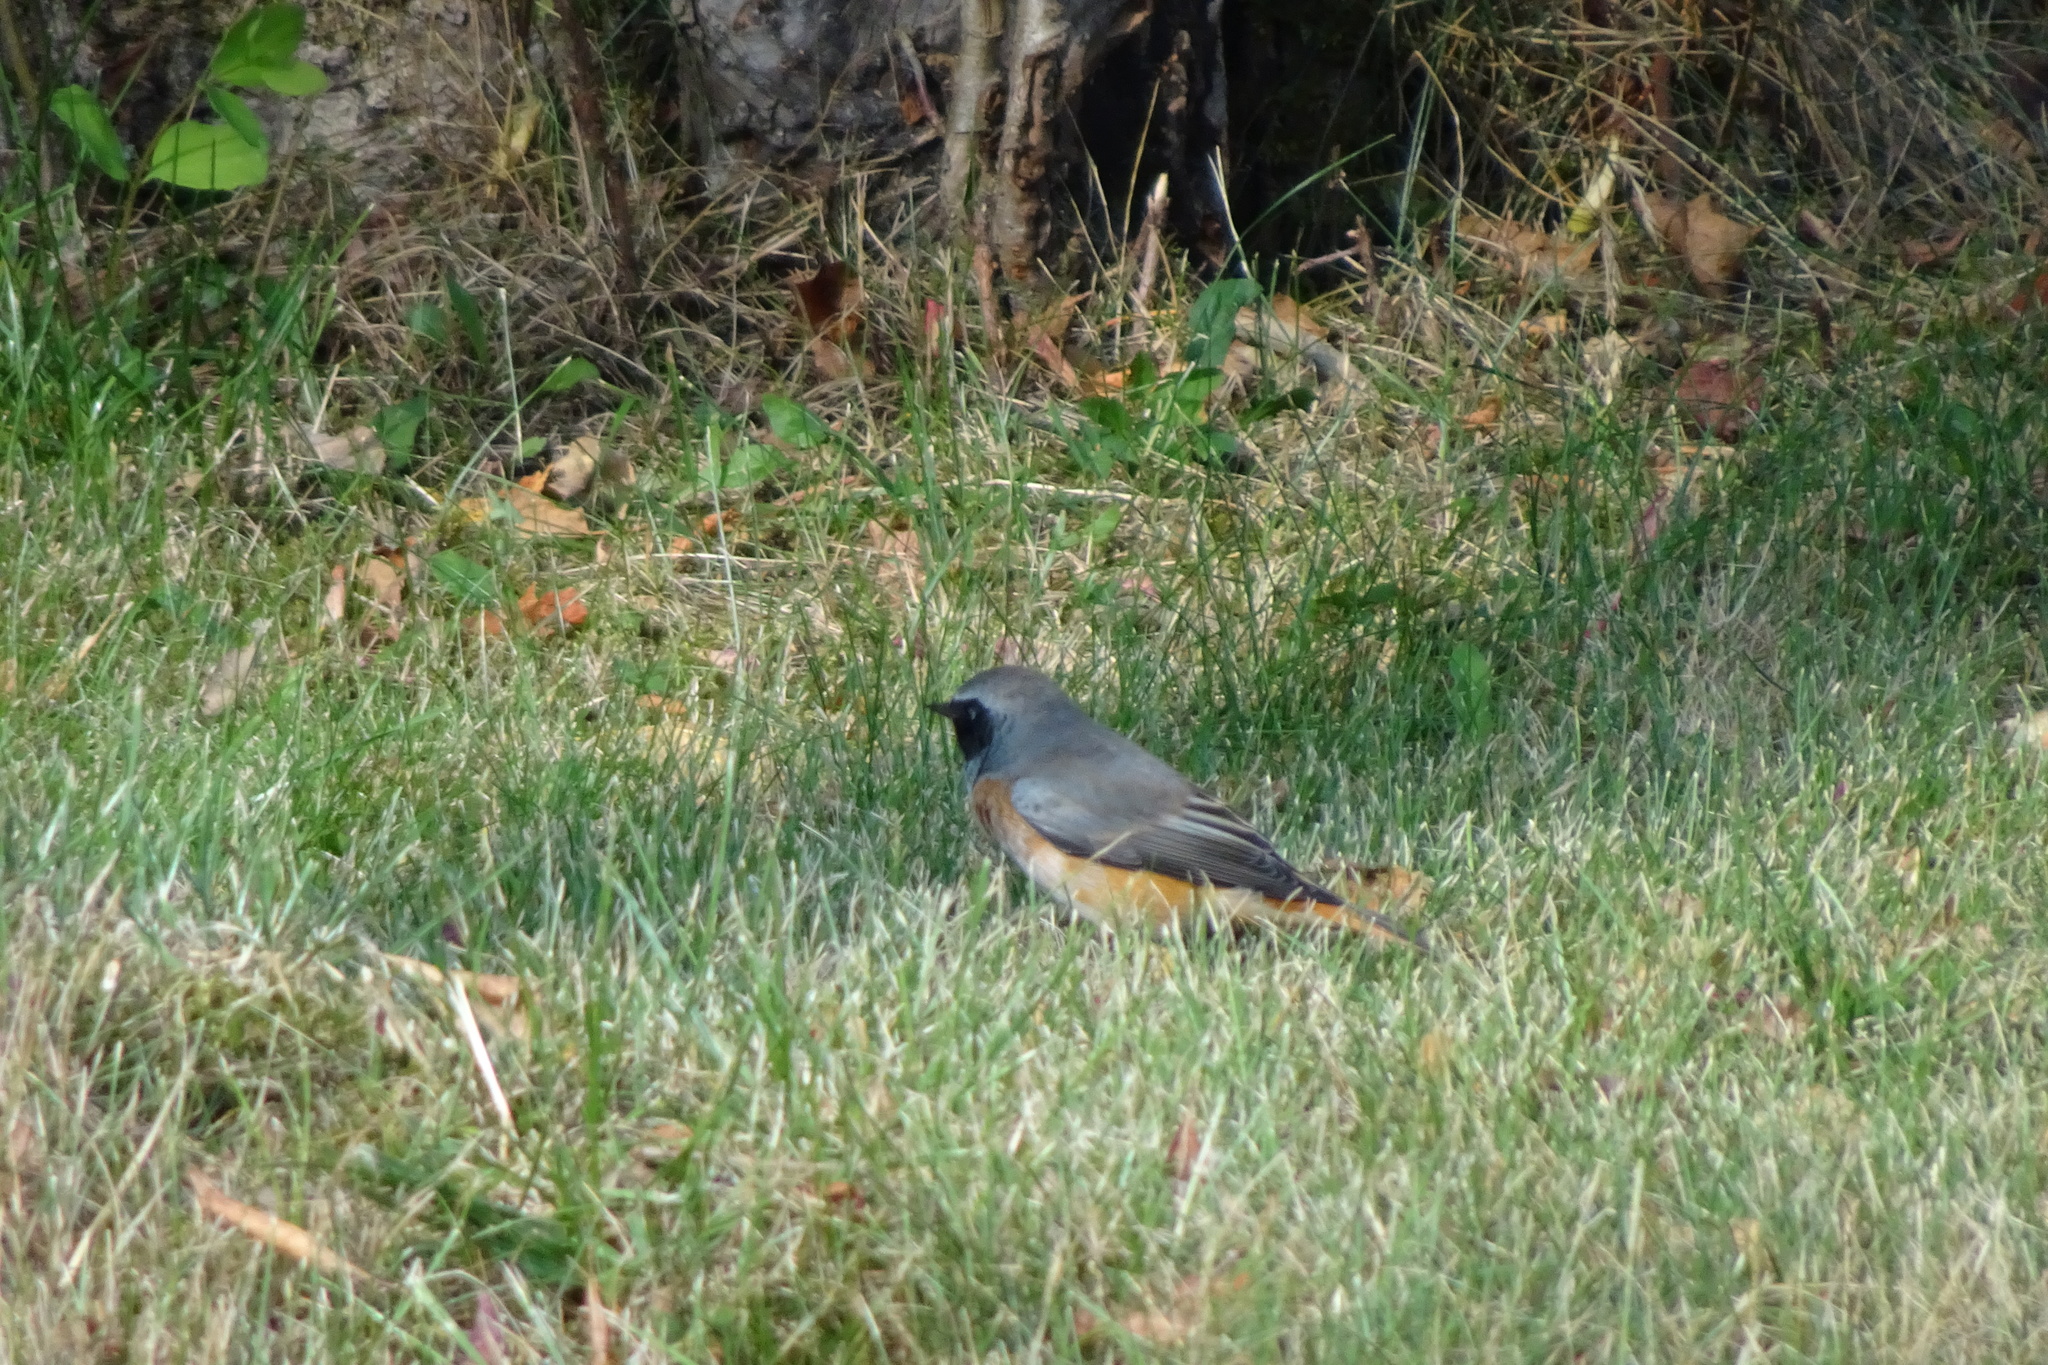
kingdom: Animalia
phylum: Chordata
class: Aves
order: Passeriformes
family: Muscicapidae
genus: Phoenicurus
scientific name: Phoenicurus phoenicurus
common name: Common redstart
